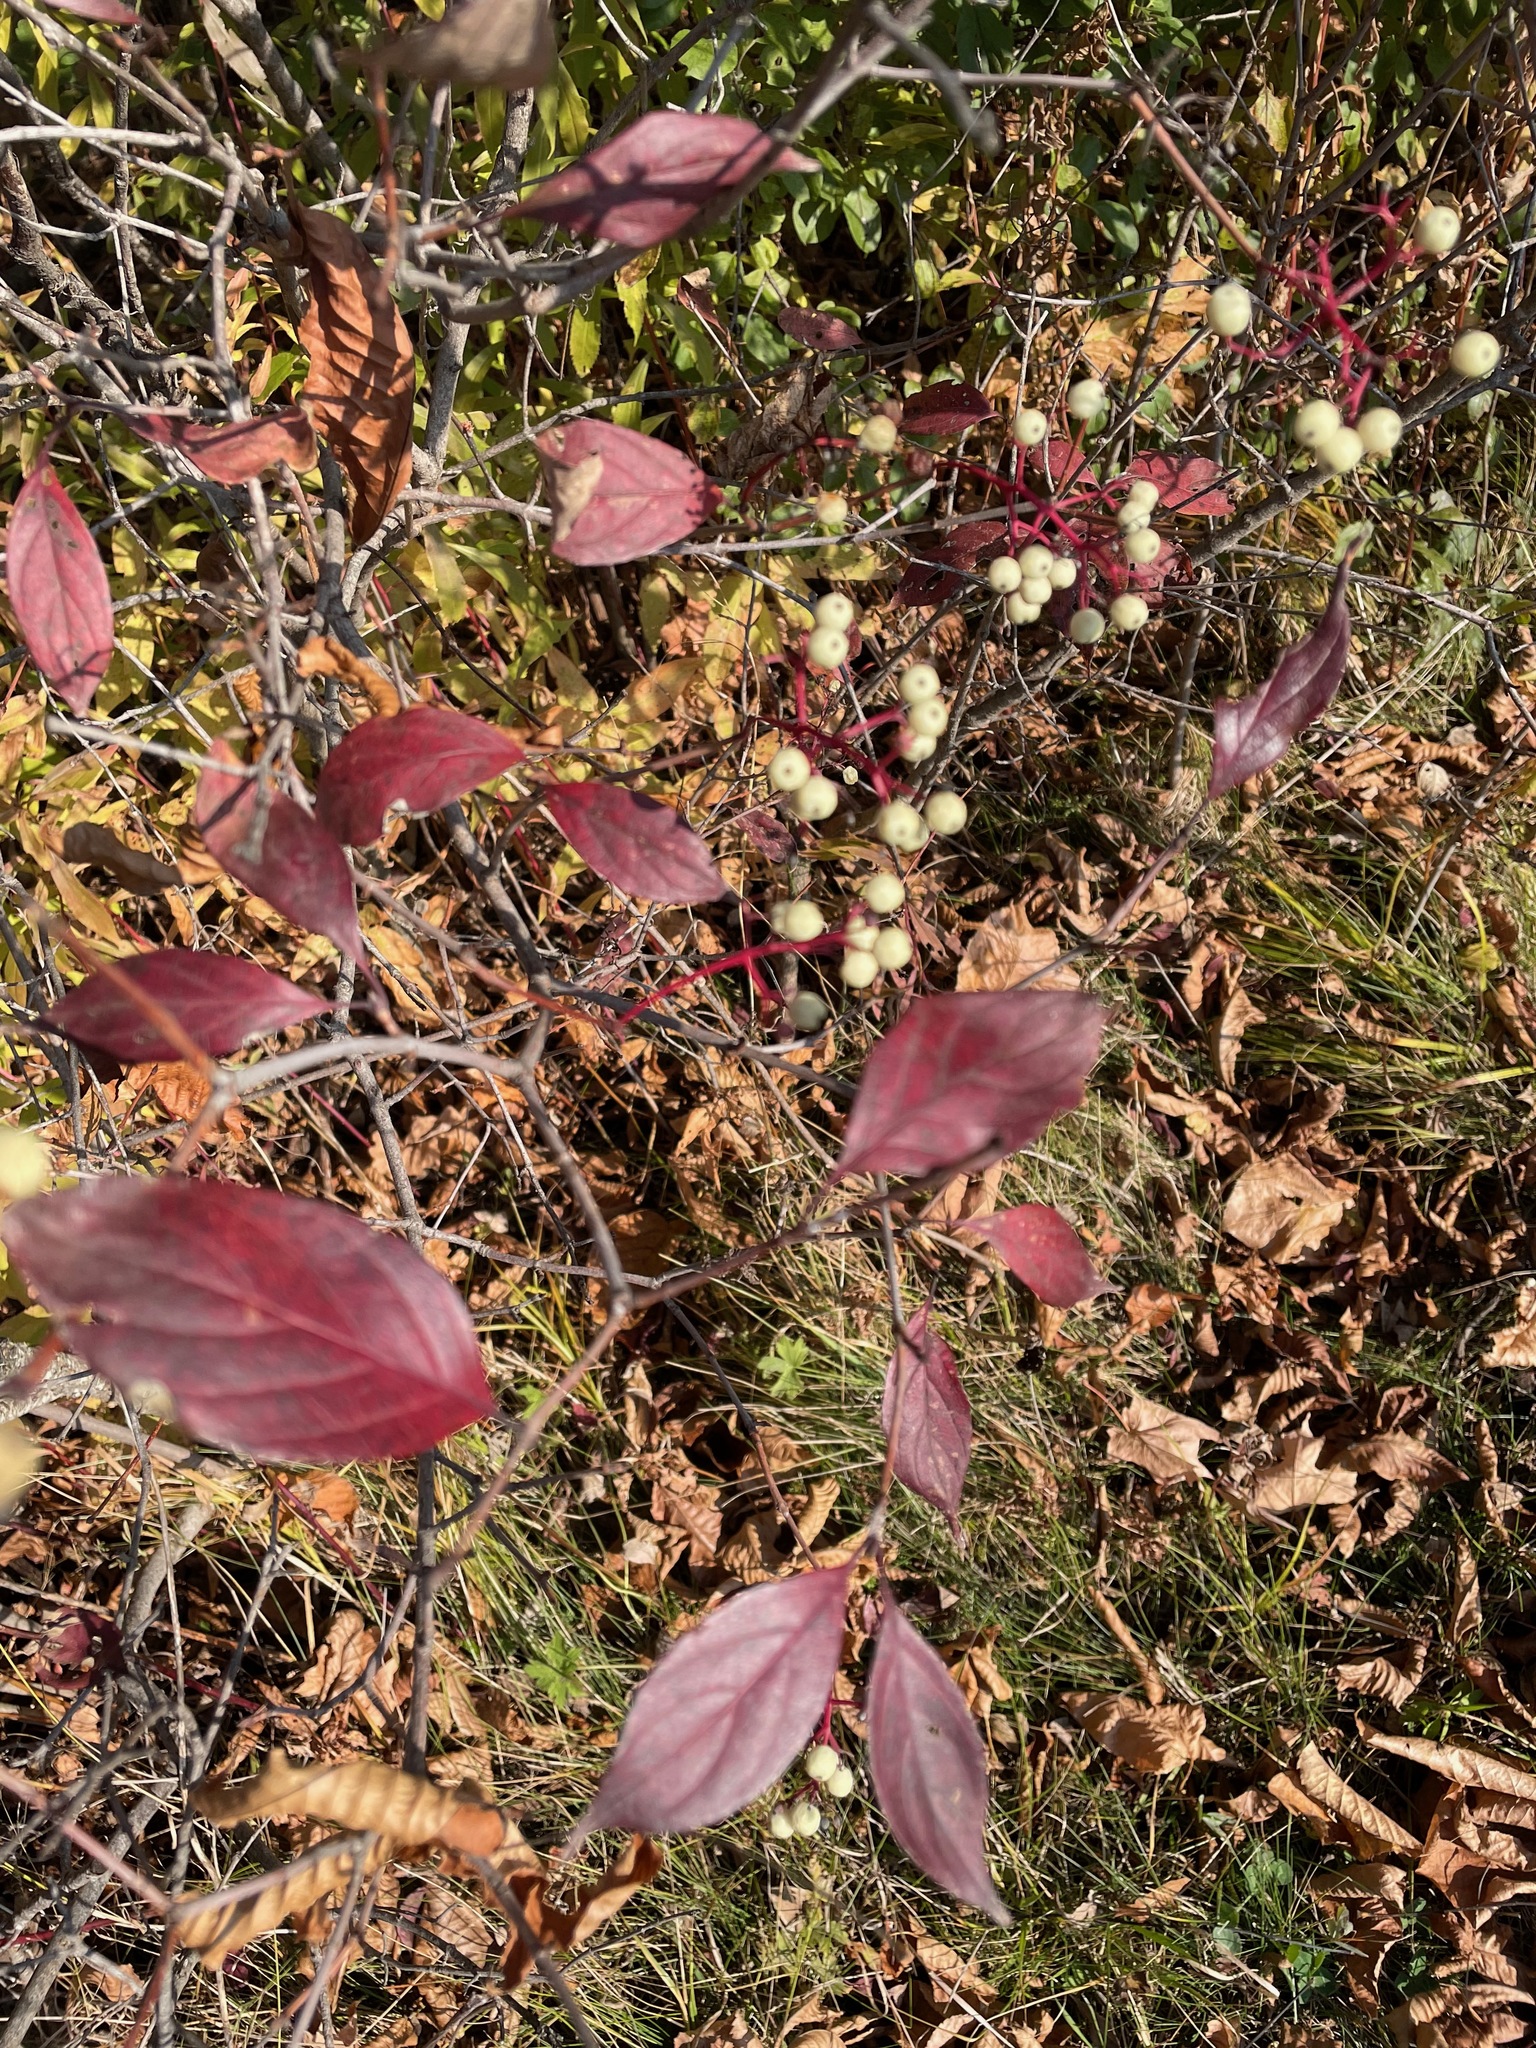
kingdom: Plantae
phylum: Tracheophyta
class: Magnoliopsida
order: Cornales
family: Cornaceae
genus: Cornus
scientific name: Cornus racemosa
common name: Panicled dogwood
